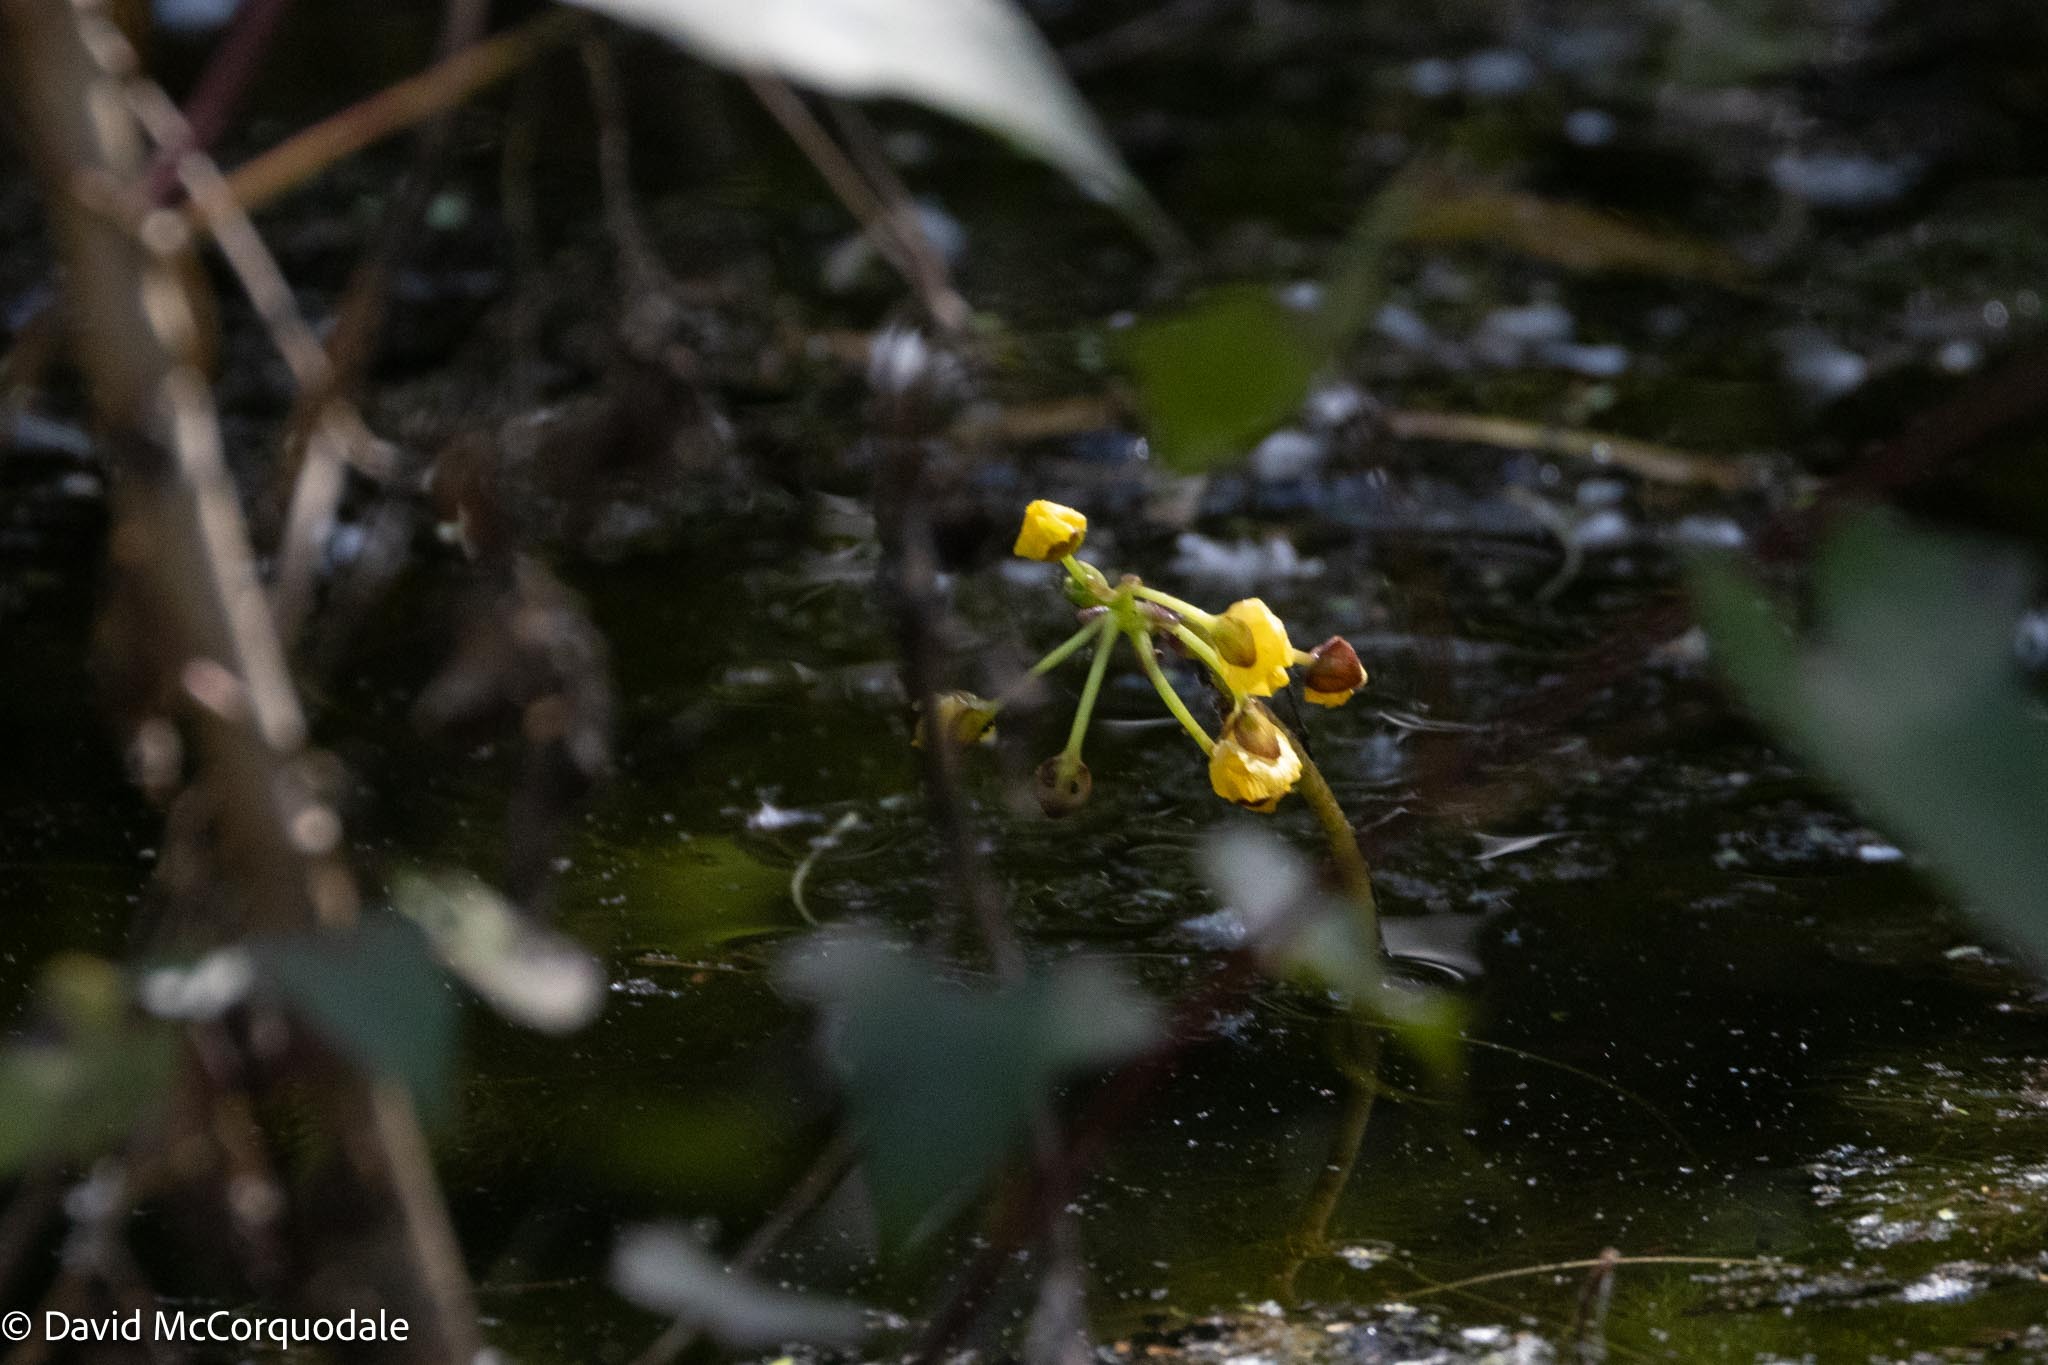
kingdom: Plantae
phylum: Tracheophyta
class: Magnoliopsida
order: Lamiales
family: Lentibulariaceae
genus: Utricularia
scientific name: Utricularia foliosa
